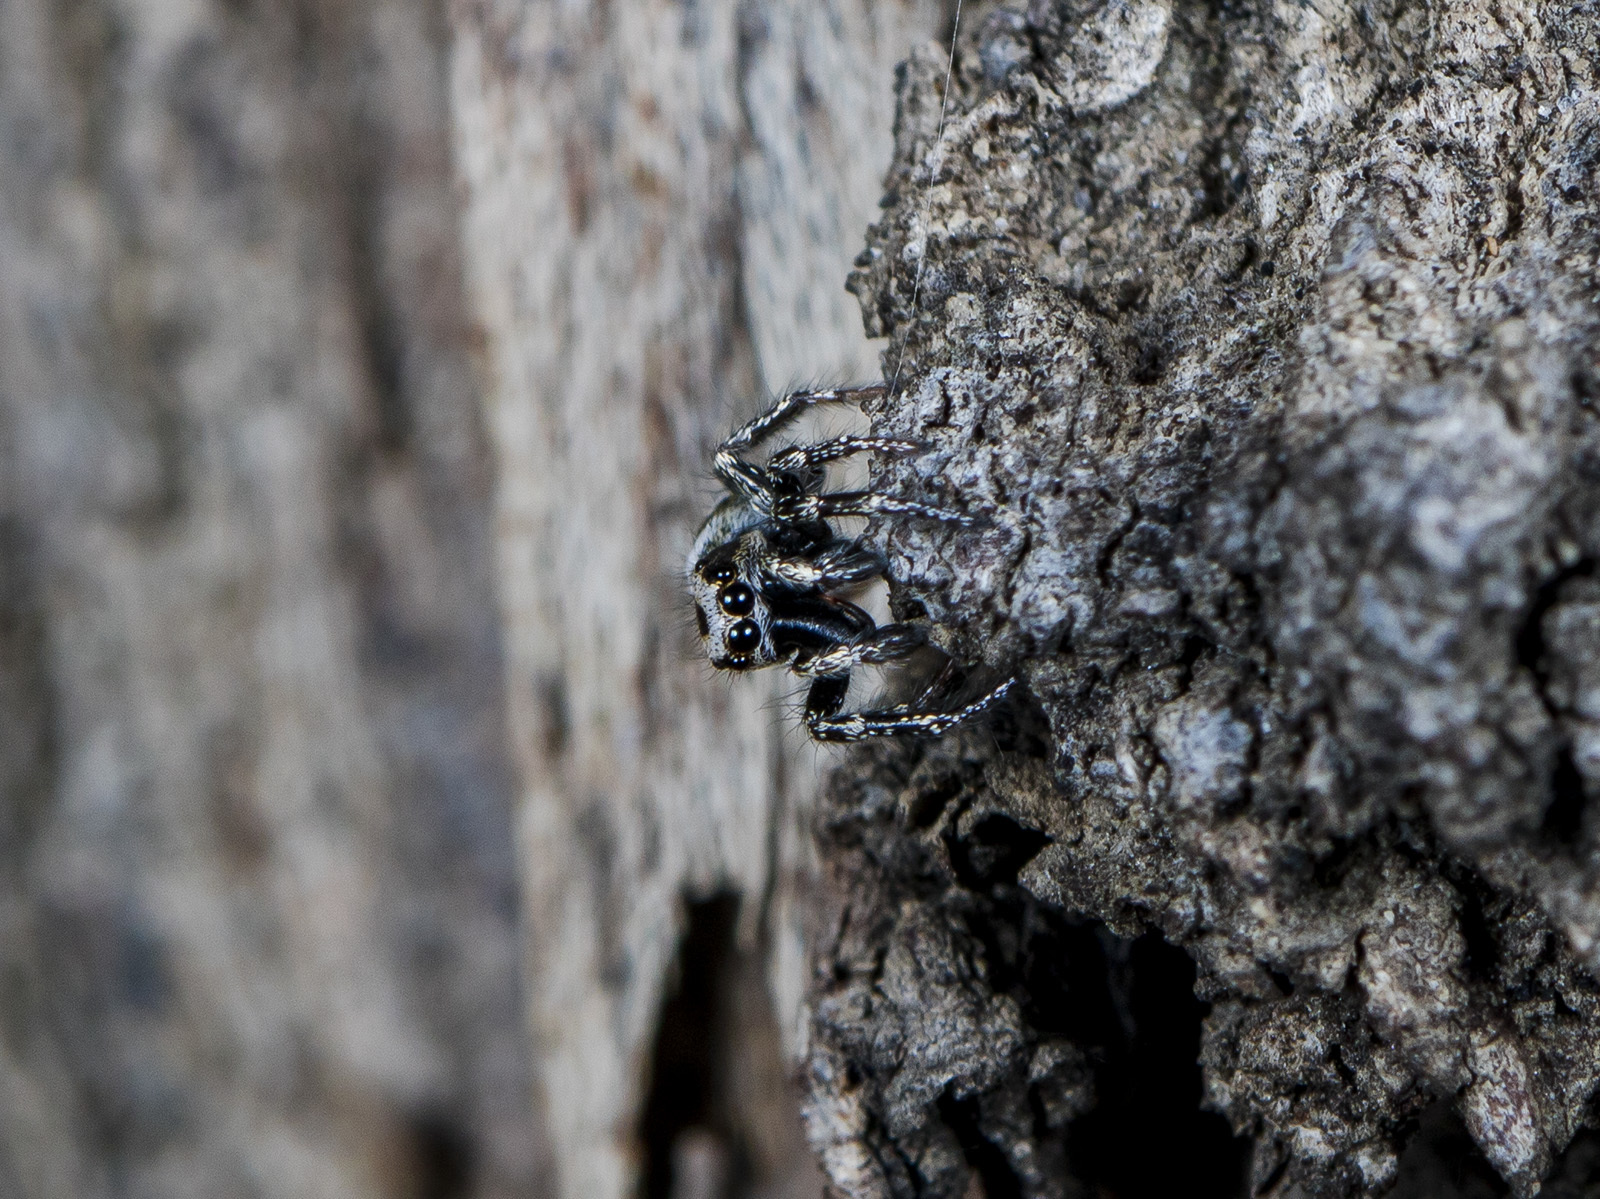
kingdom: Animalia
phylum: Arthropoda
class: Arachnida
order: Araneae
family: Salticidae
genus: Salticus
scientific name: Salticus tricinctus
